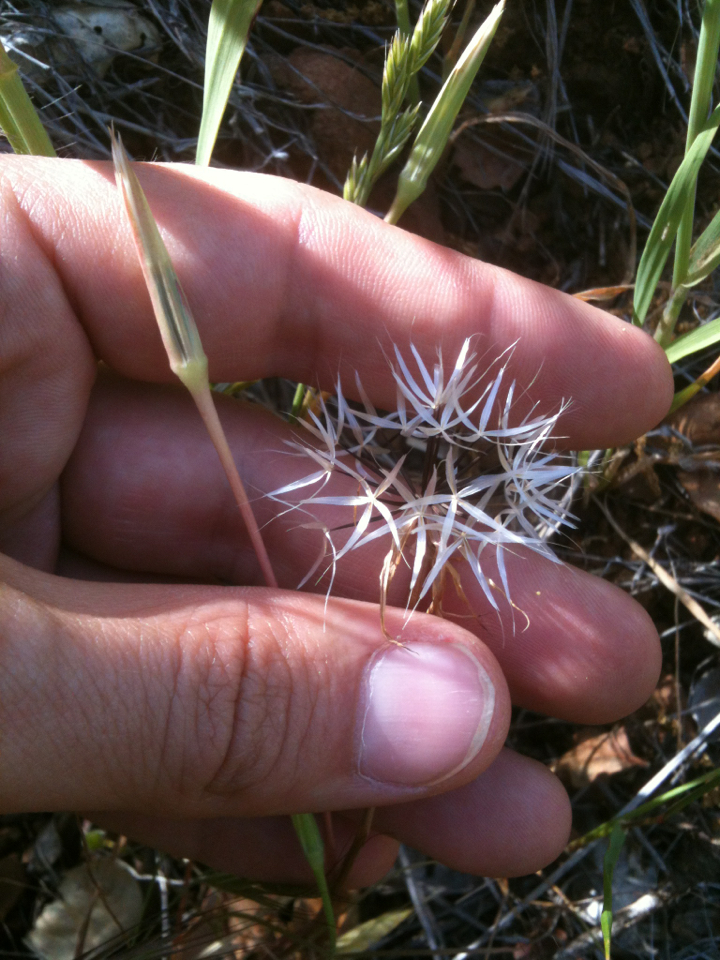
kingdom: Plantae
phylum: Tracheophyta
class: Magnoliopsida
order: Asterales
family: Asteraceae
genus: Microseris
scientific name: Microseris lindleyi
